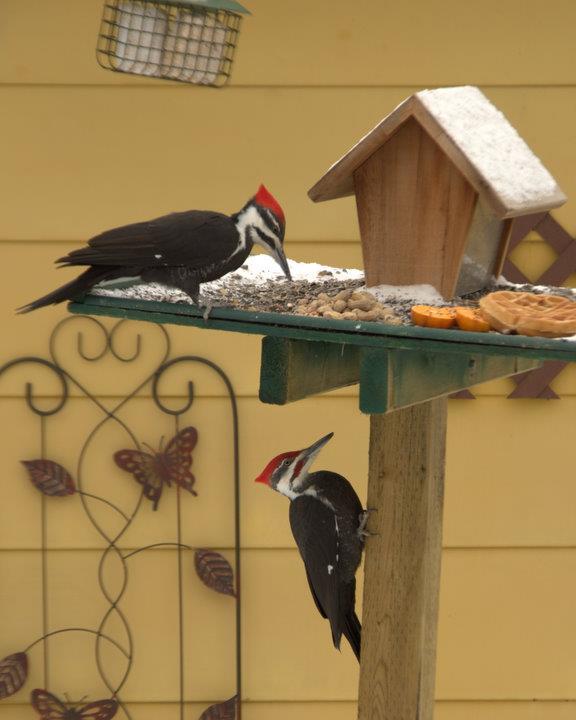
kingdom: Animalia
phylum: Chordata
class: Aves
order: Piciformes
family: Picidae
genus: Dryocopus
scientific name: Dryocopus pileatus
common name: Pileated woodpecker
